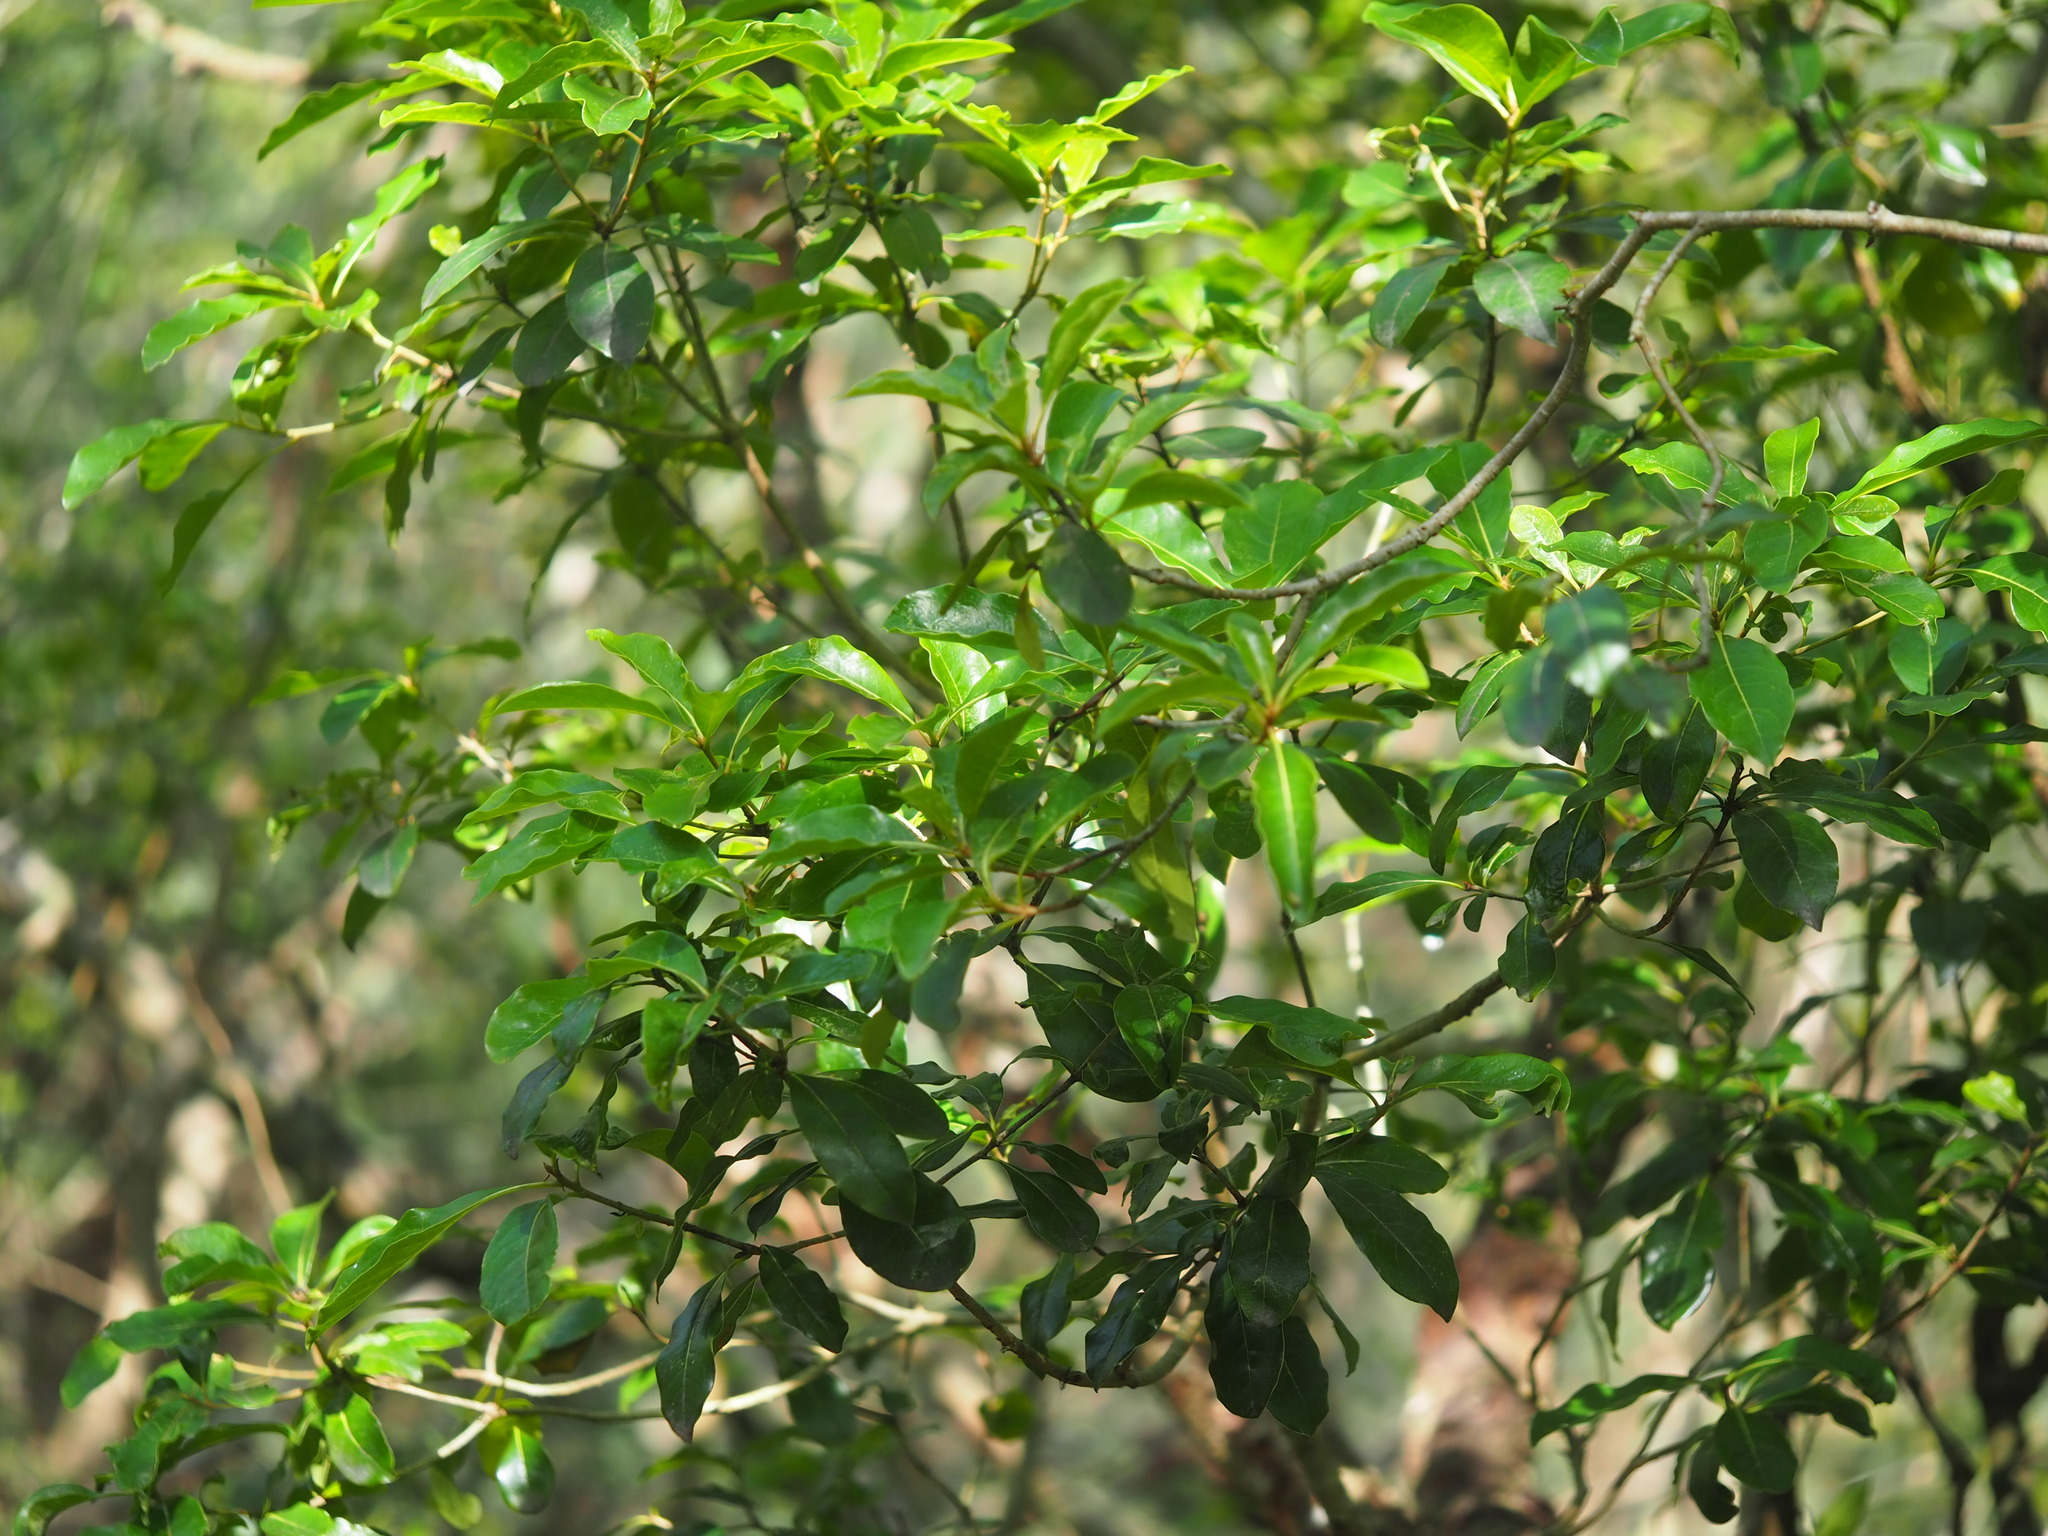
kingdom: Plantae
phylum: Tracheophyta
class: Magnoliopsida
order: Apiales
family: Pittosporaceae
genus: Pittosporum
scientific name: Pittosporum pentandrum
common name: Taiwanese cheesewood
